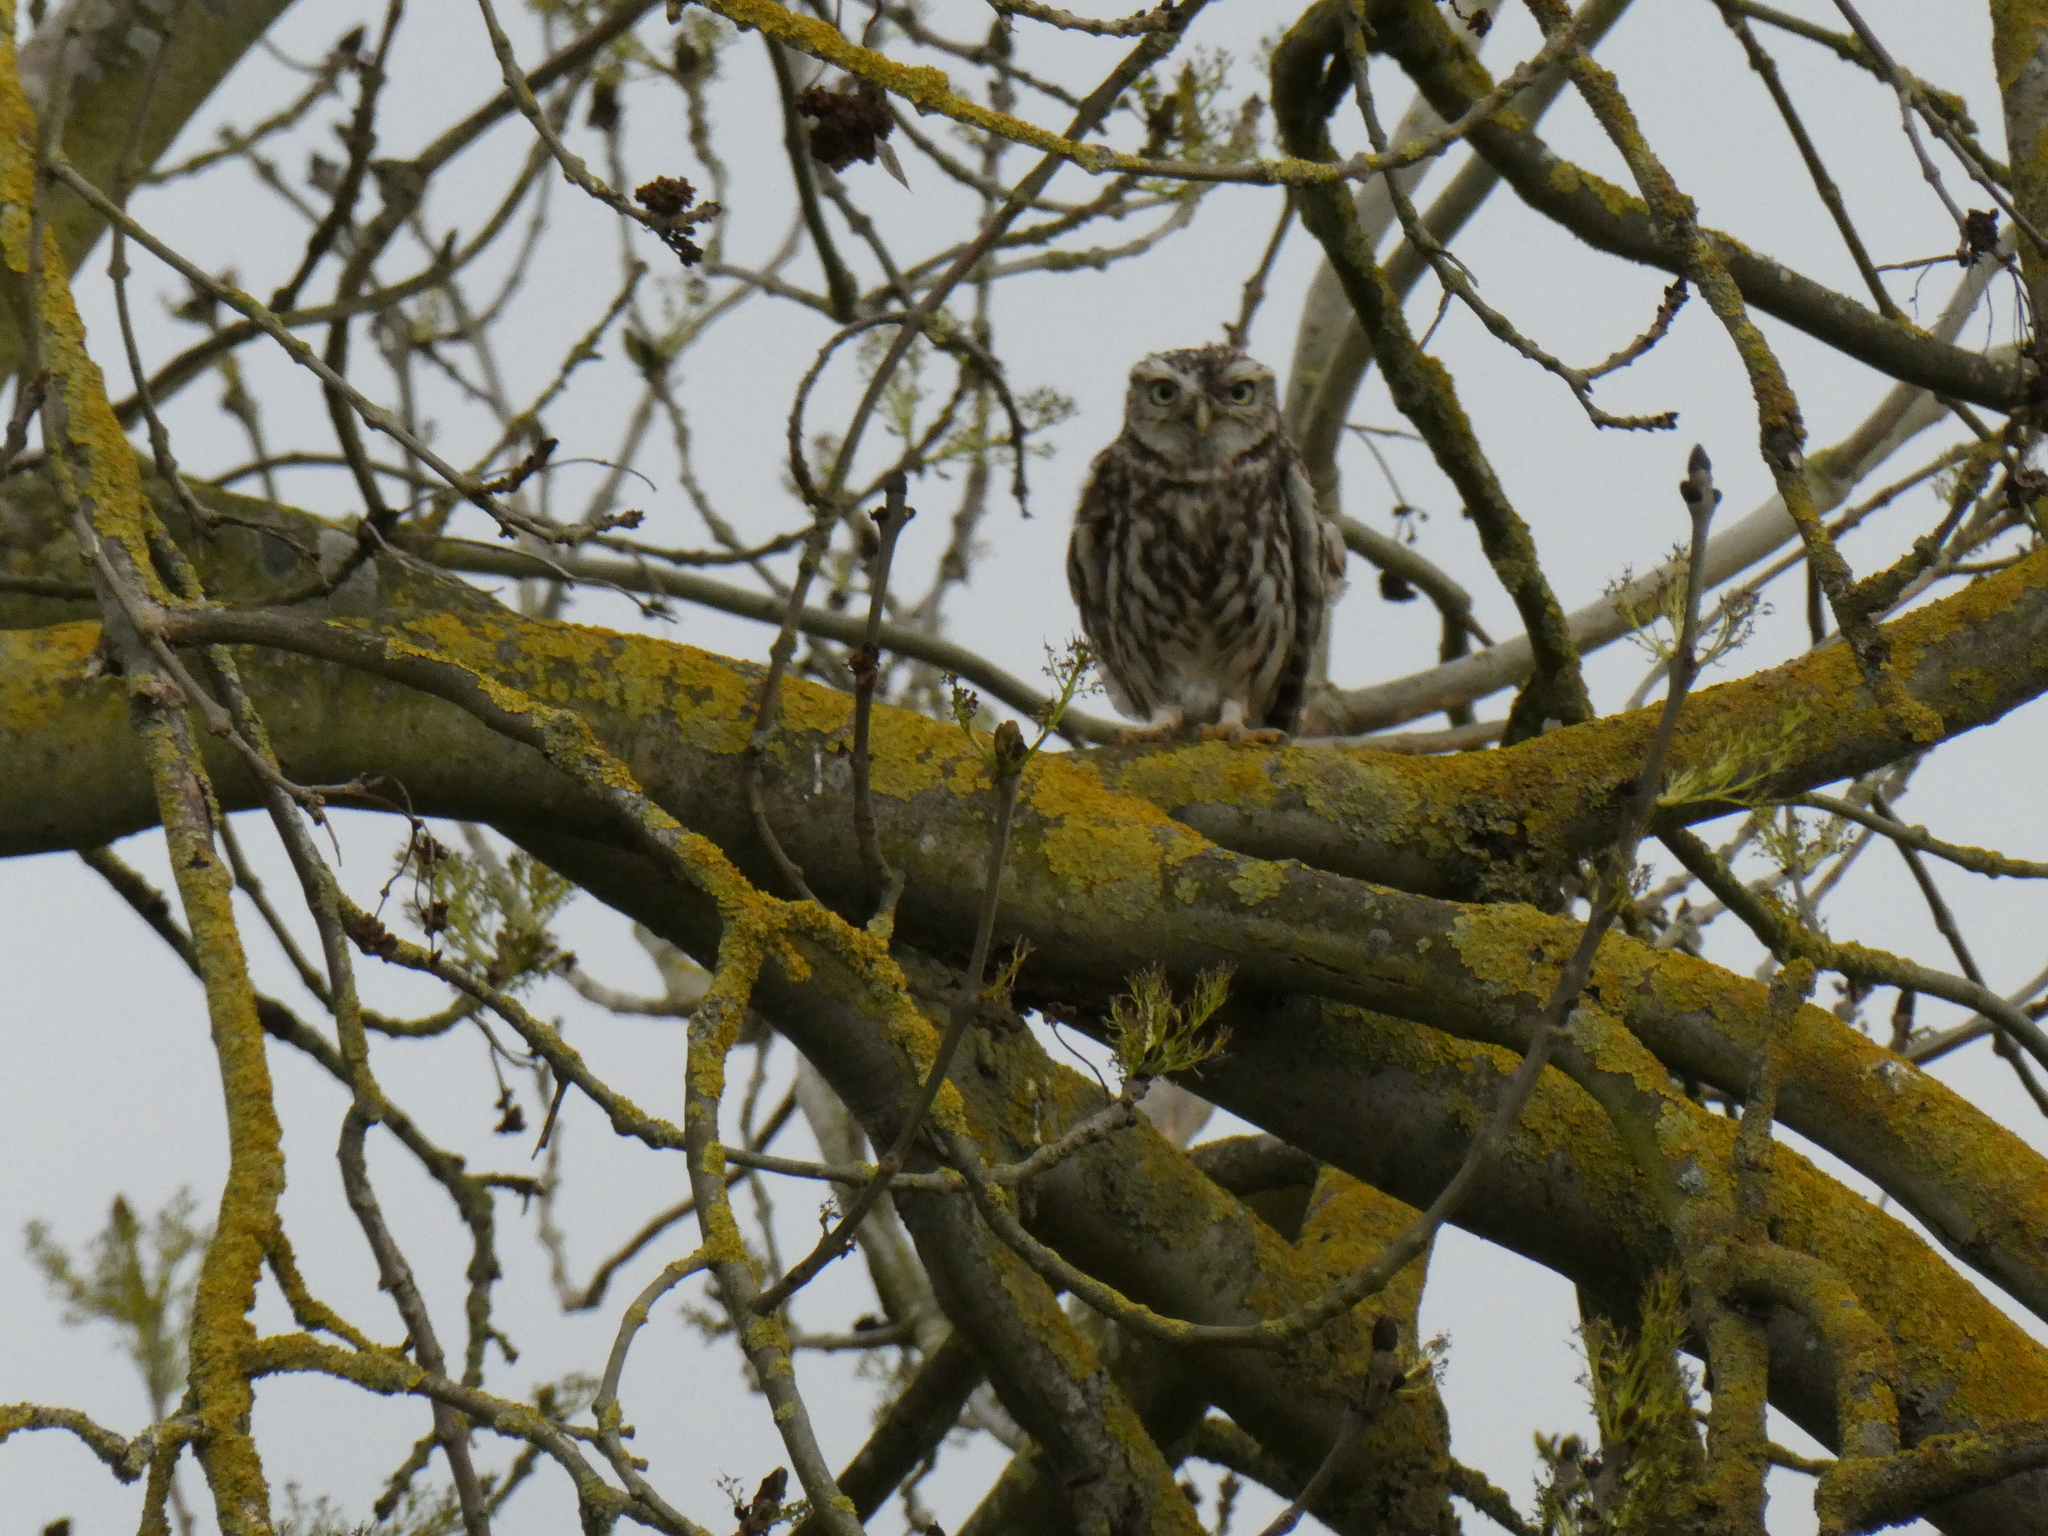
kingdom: Animalia
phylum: Chordata
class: Aves
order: Strigiformes
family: Strigidae
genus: Athene
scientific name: Athene noctua
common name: Little owl
